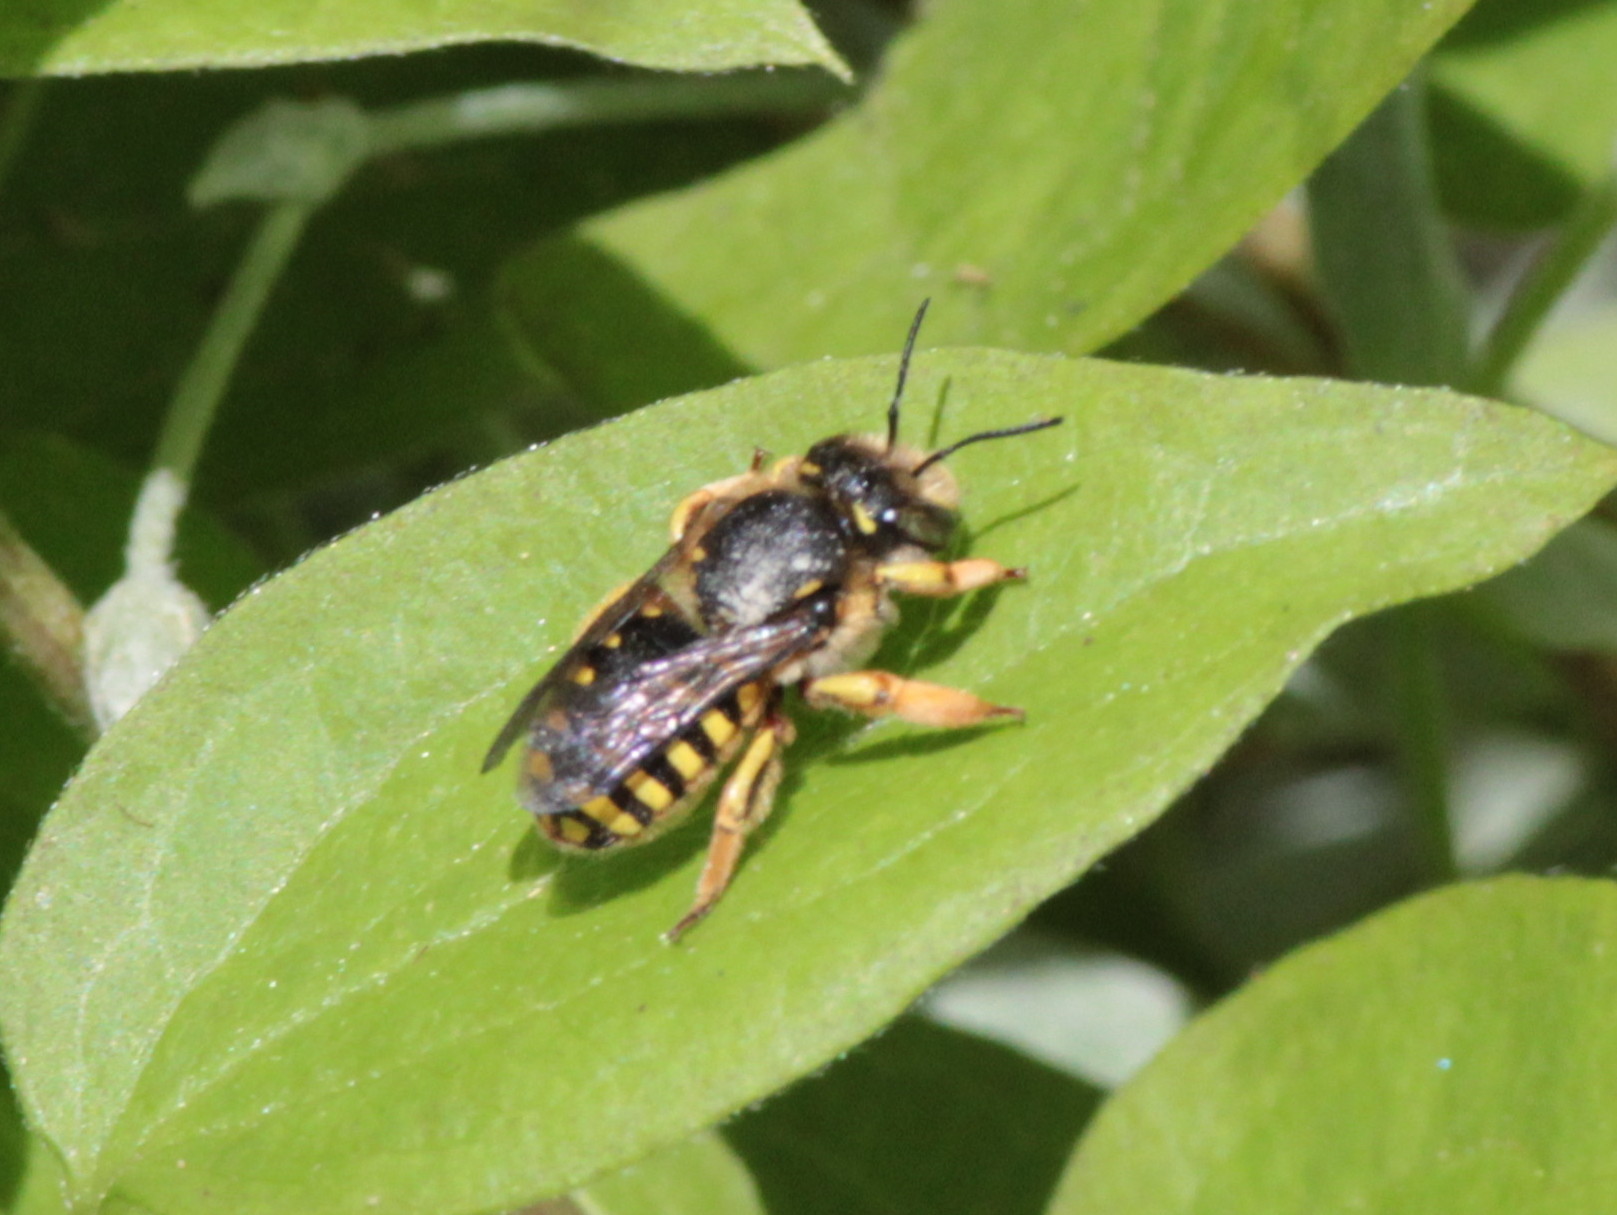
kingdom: Animalia
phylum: Arthropoda
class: Insecta
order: Hymenoptera
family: Megachilidae
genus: Anthidium
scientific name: Anthidium manicatum
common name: Wool carder bee
